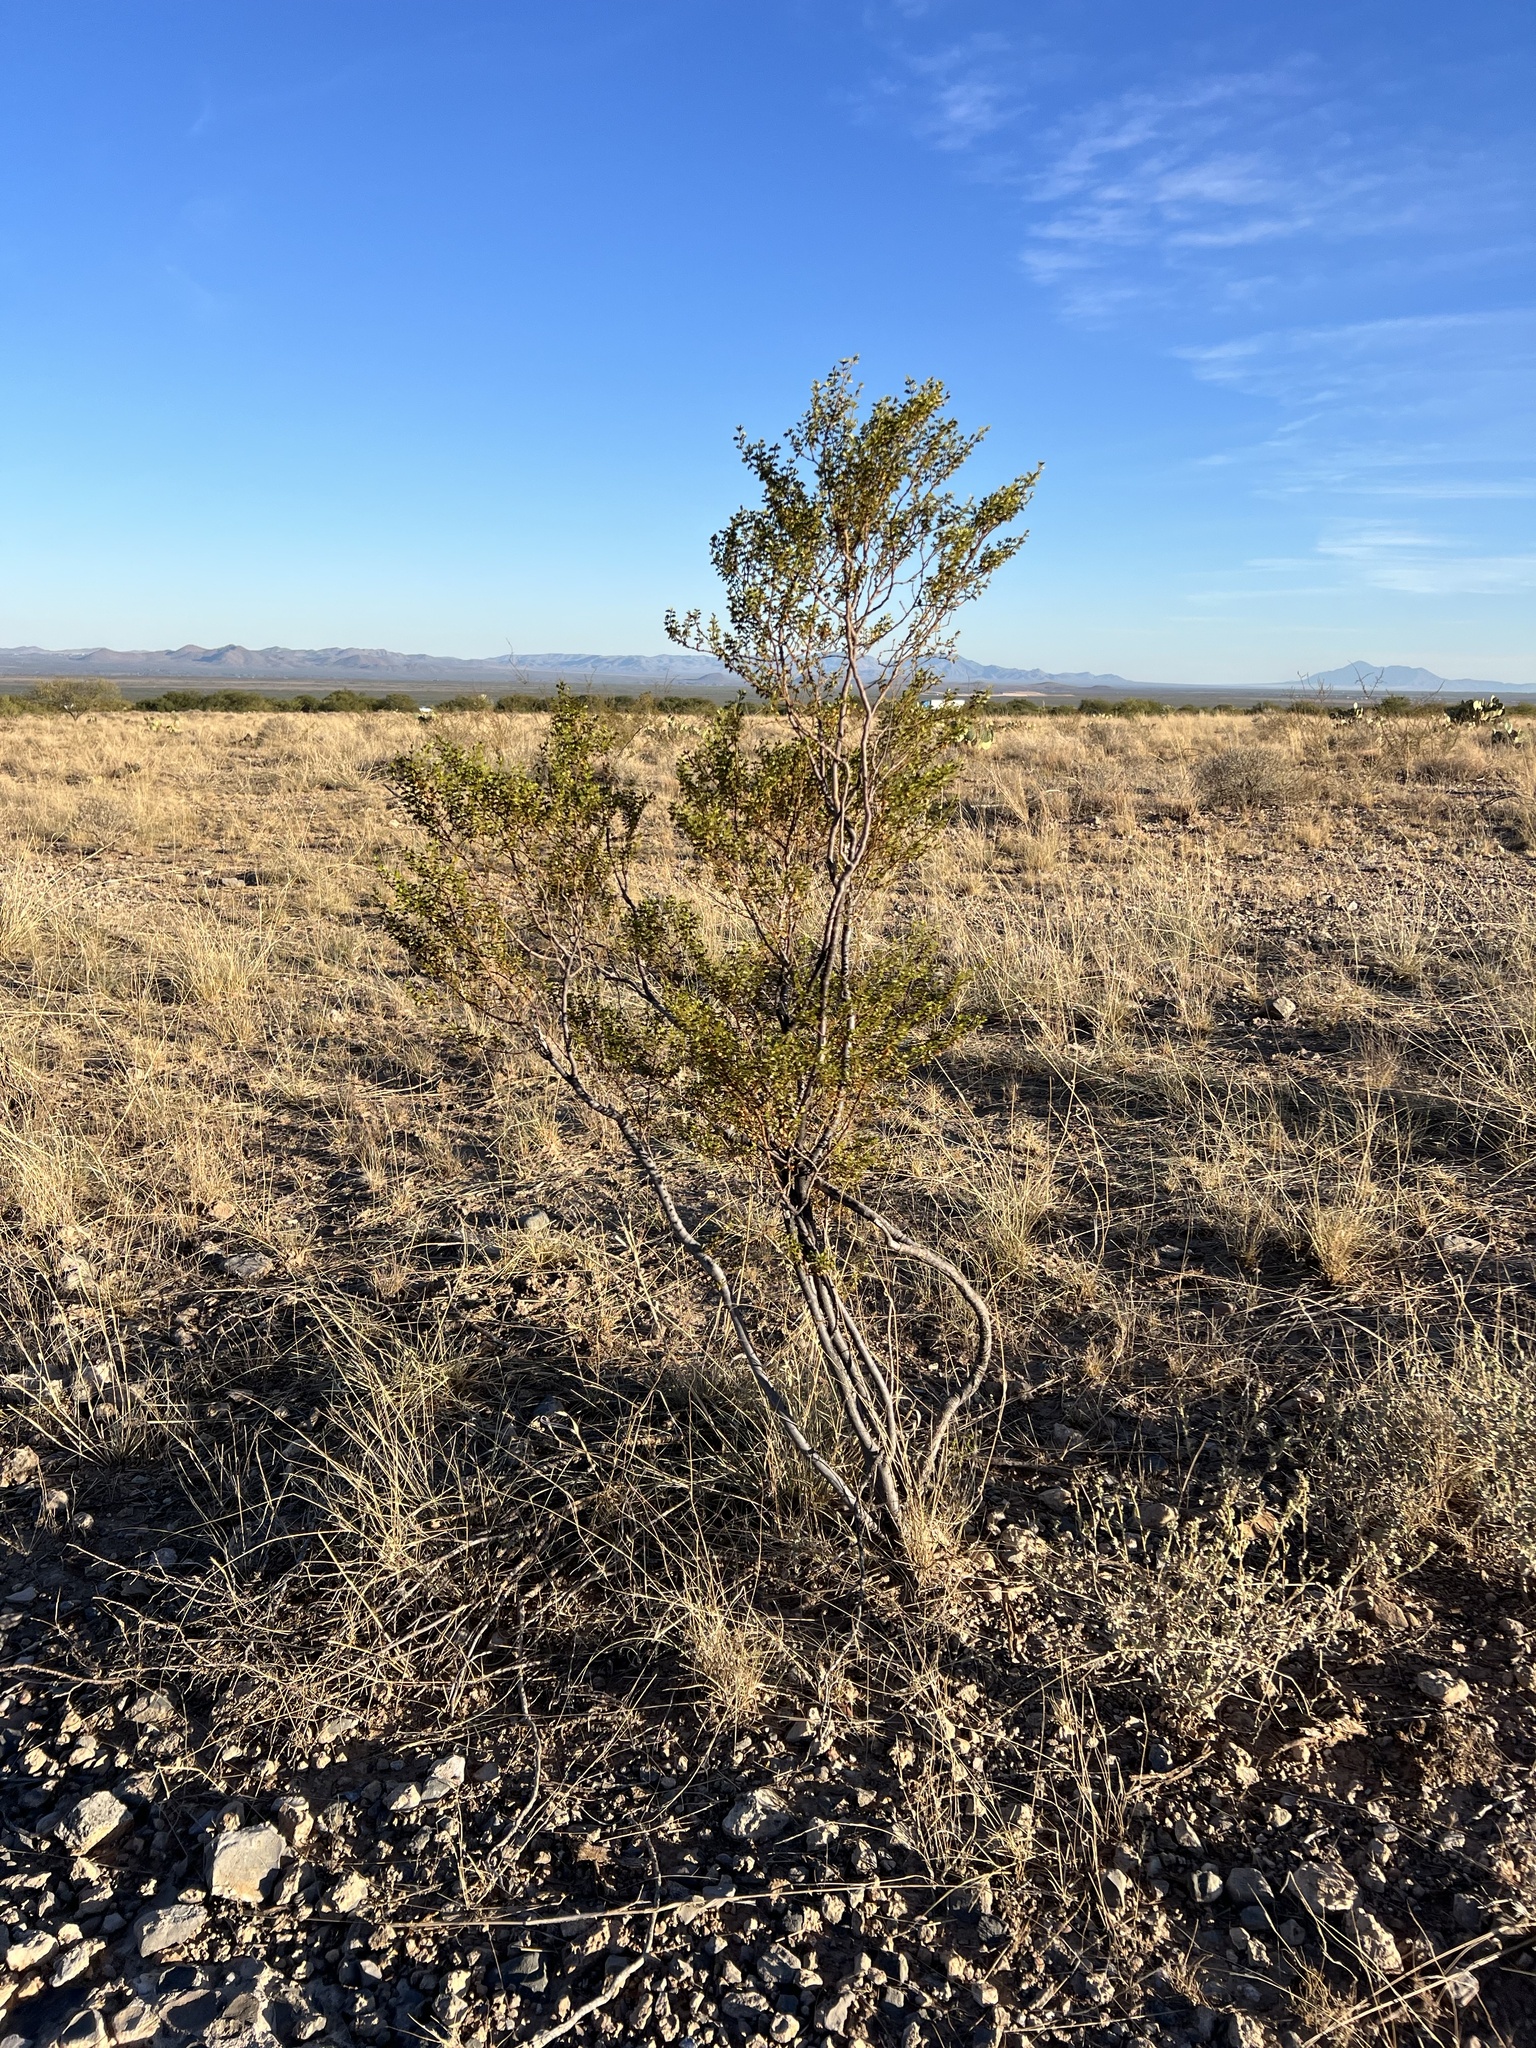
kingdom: Plantae
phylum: Tracheophyta
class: Magnoliopsida
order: Zygophyllales
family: Zygophyllaceae
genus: Larrea
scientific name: Larrea tridentata
